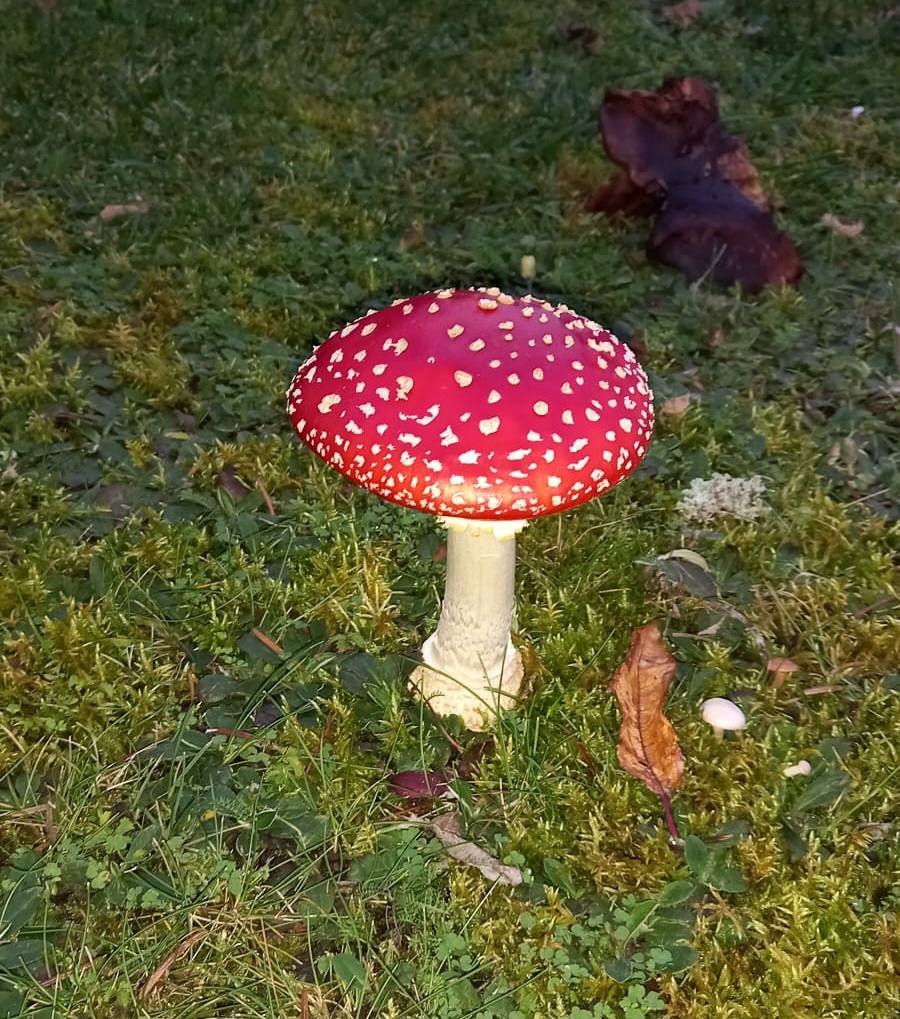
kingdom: Fungi
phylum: Basidiomycota
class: Agaricomycetes
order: Agaricales
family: Amanitaceae
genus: Amanita
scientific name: Amanita muscaria
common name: Fly agaric
